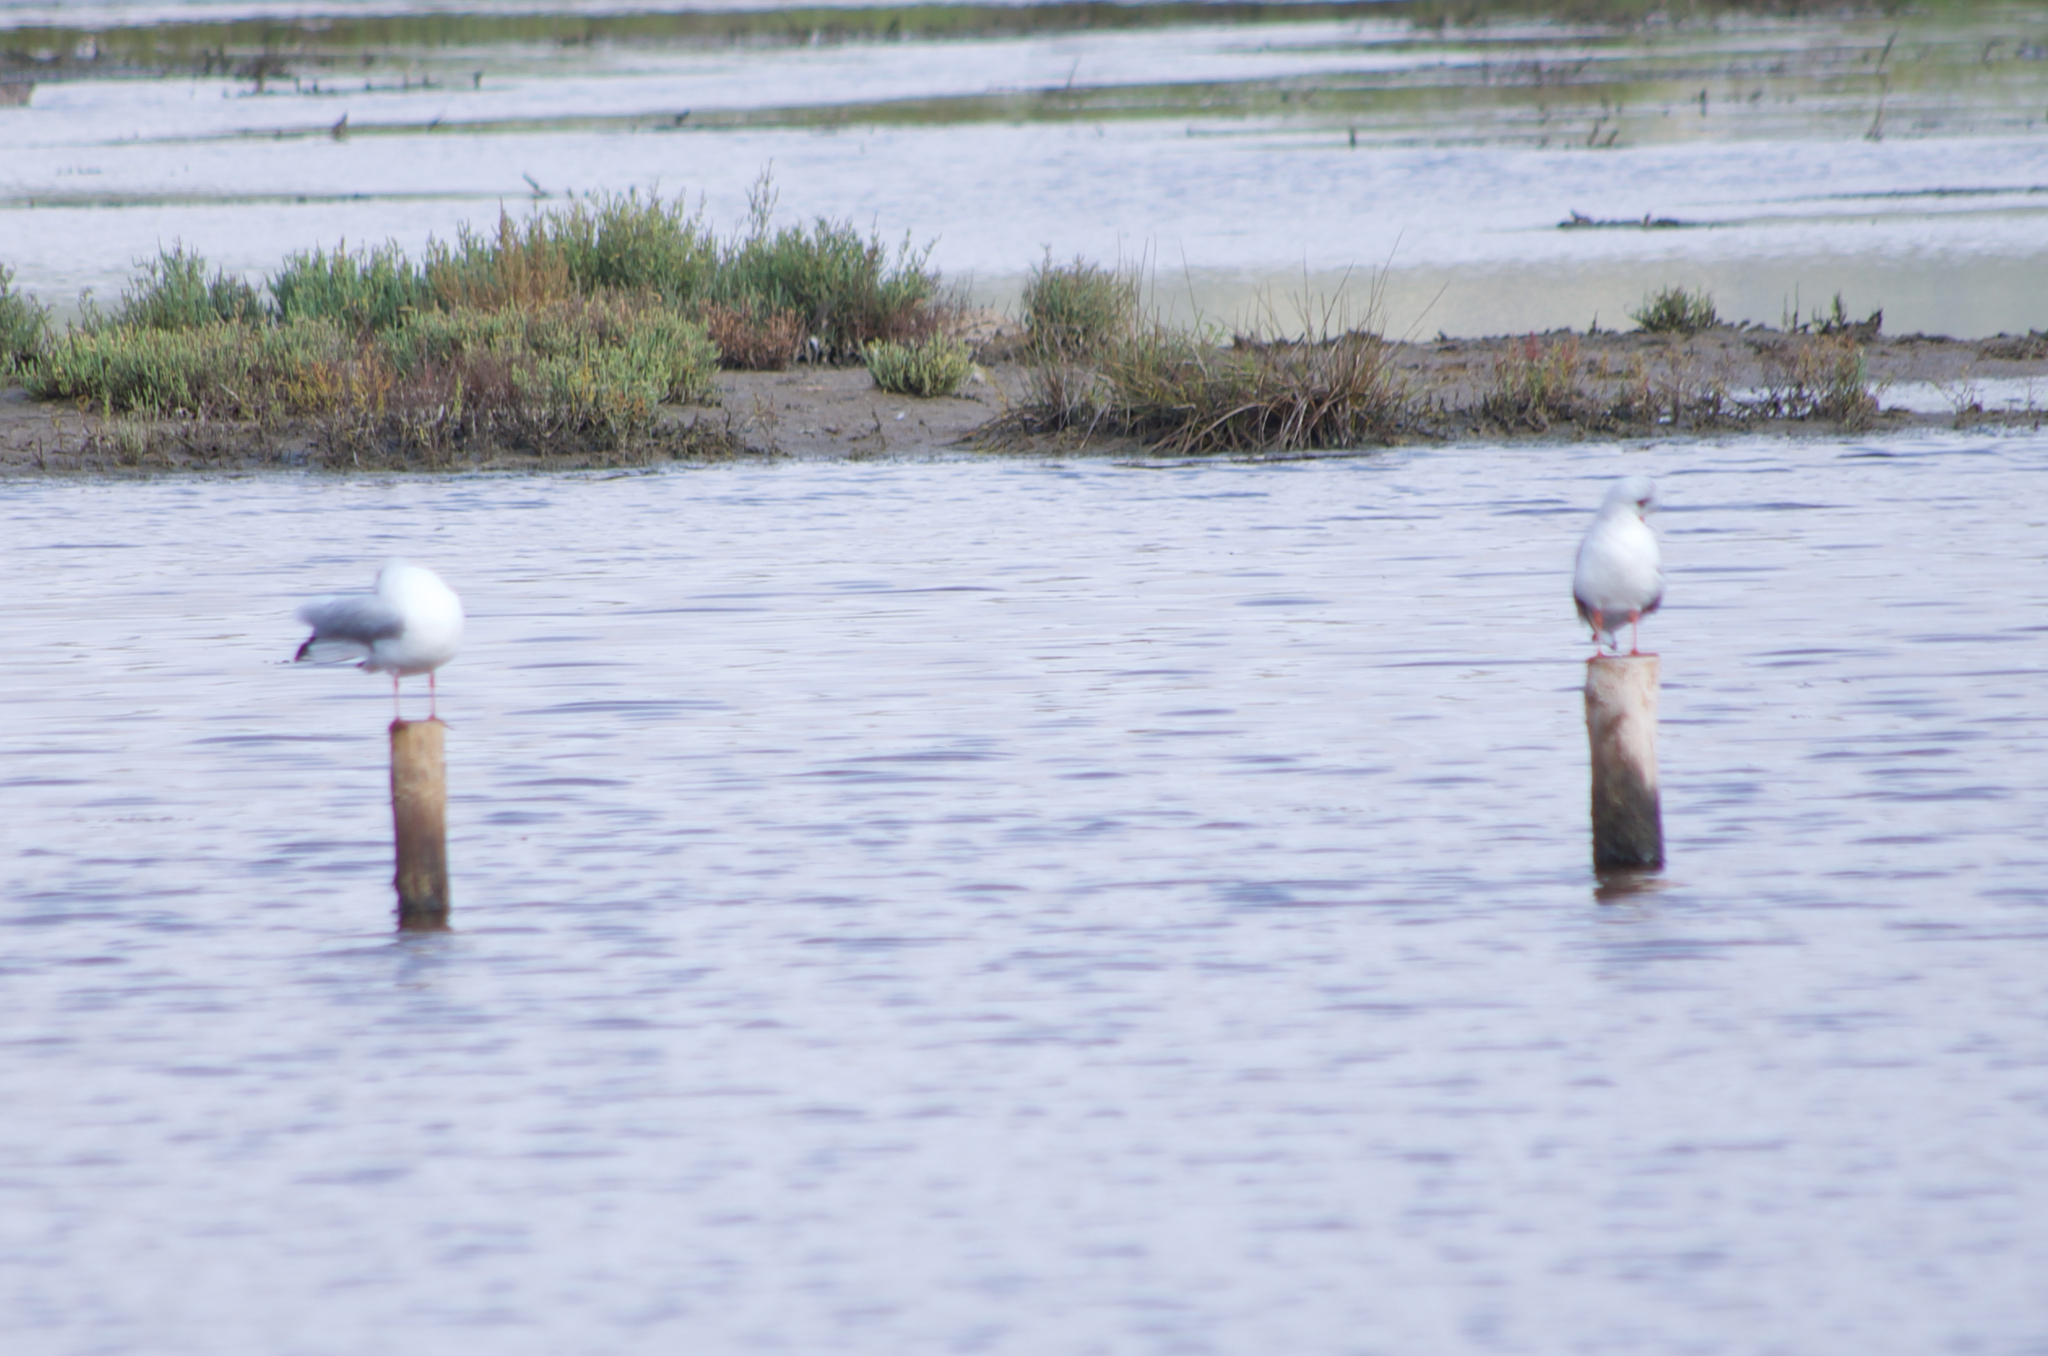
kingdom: Animalia
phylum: Chordata
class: Aves
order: Charadriiformes
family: Laridae
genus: Chroicocephalus
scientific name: Chroicocephalus ridibundus
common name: Black-headed gull
